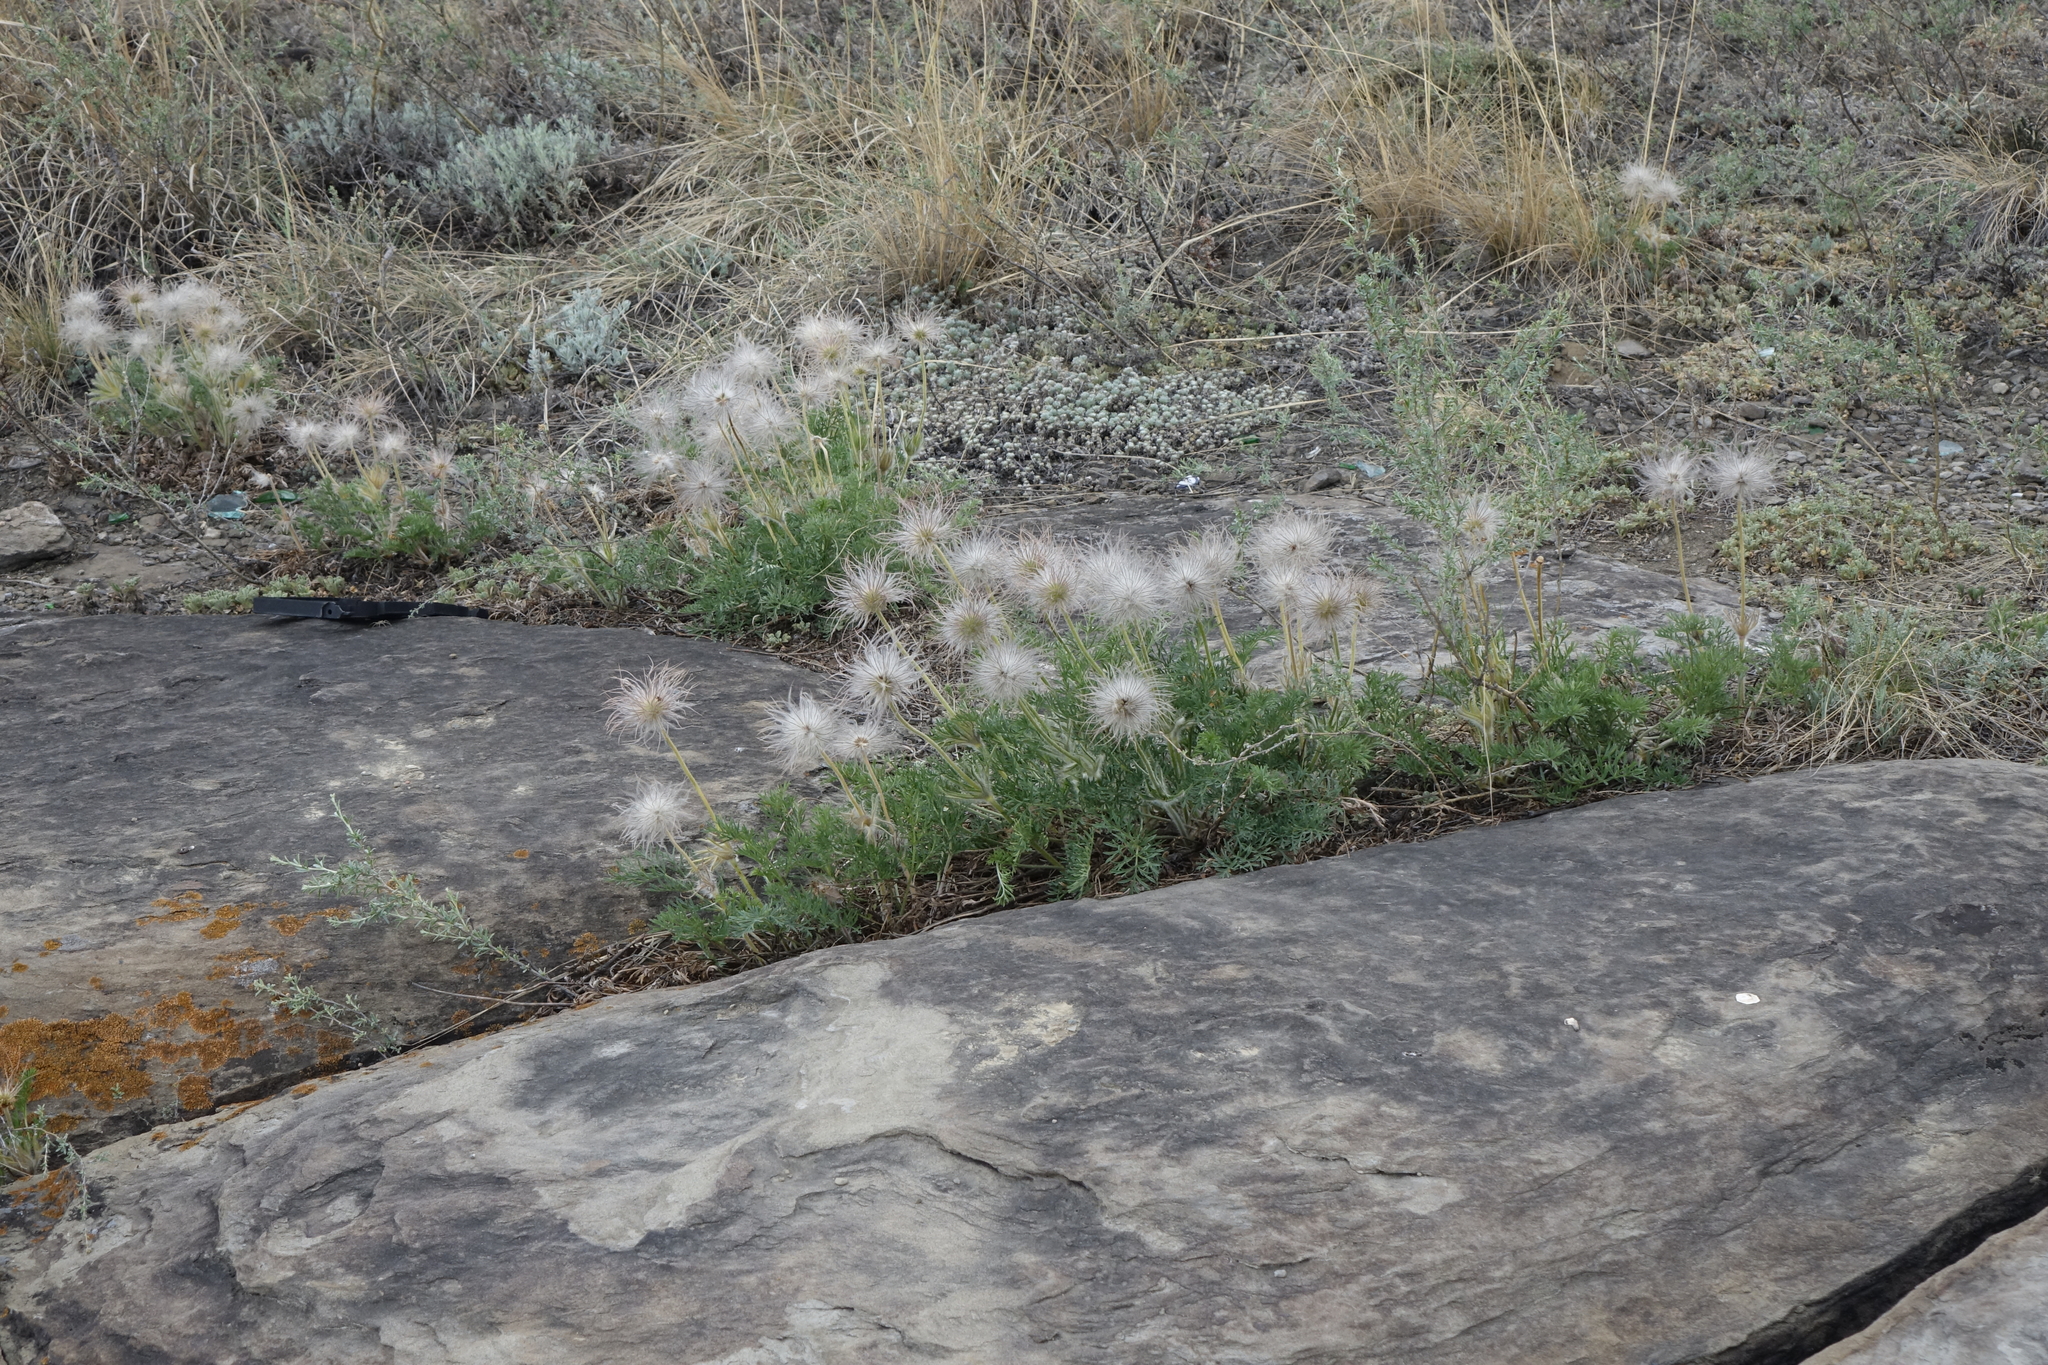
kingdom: Plantae
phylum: Tracheophyta
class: Magnoliopsida
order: Ranunculales
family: Ranunculaceae
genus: Pulsatilla
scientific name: Pulsatilla turczaninovii
